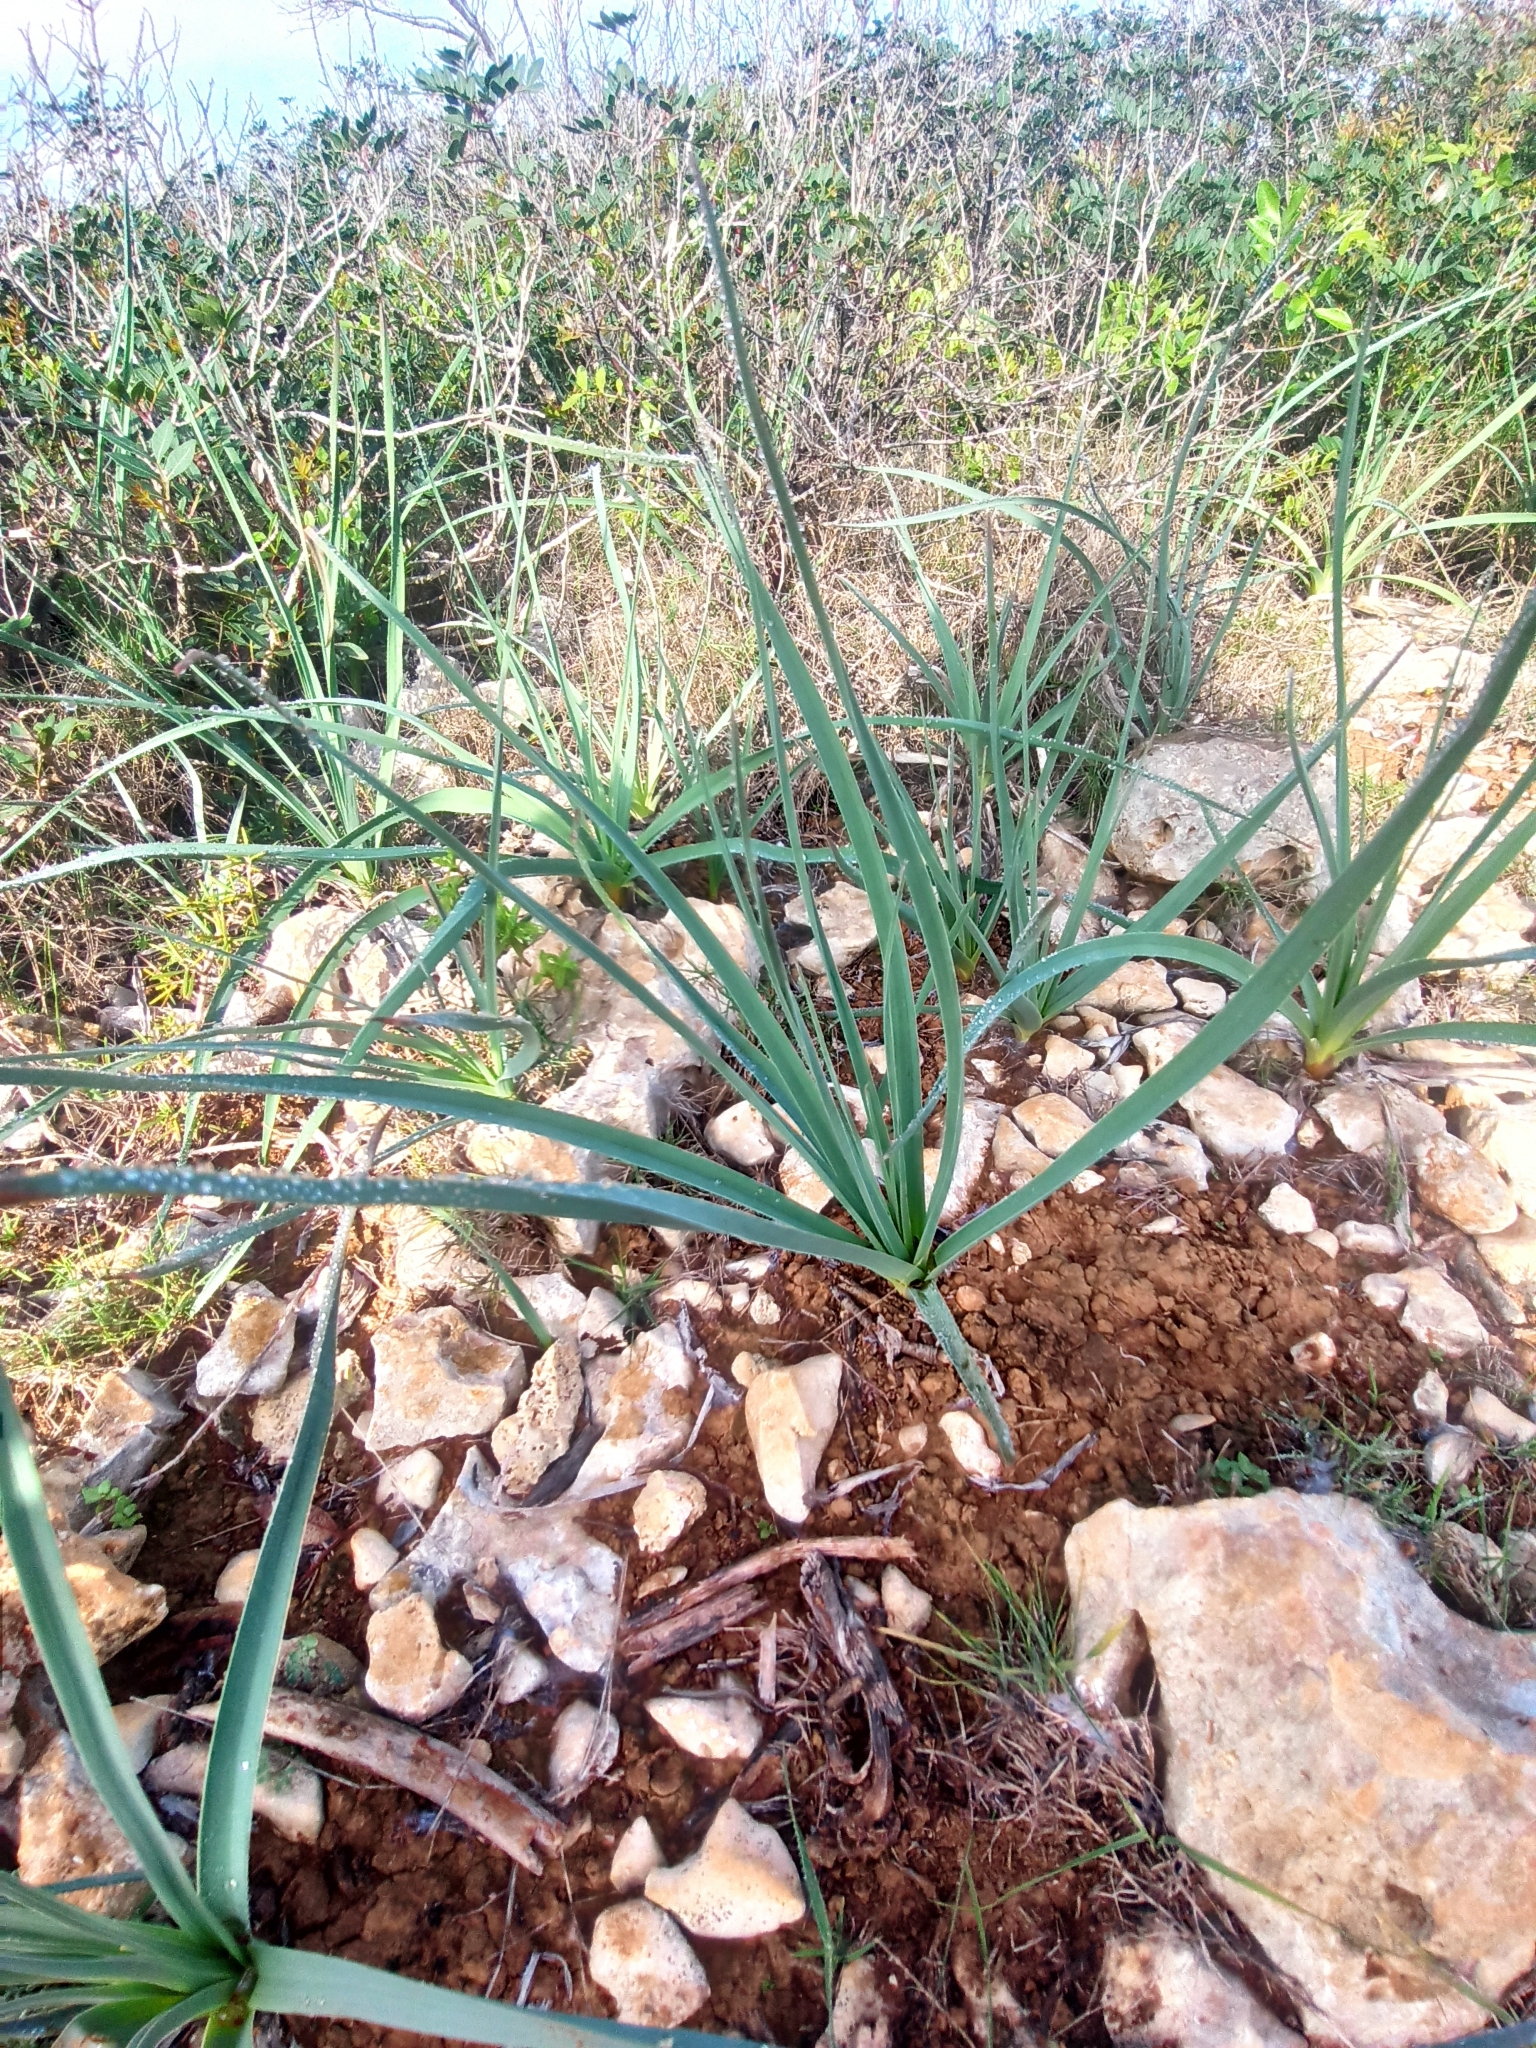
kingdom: Plantae
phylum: Tracheophyta
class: Liliopsida
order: Asparagales
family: Asphodelaceae
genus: Asphodelus
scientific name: Asphodelus ramosus
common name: Silverrod
